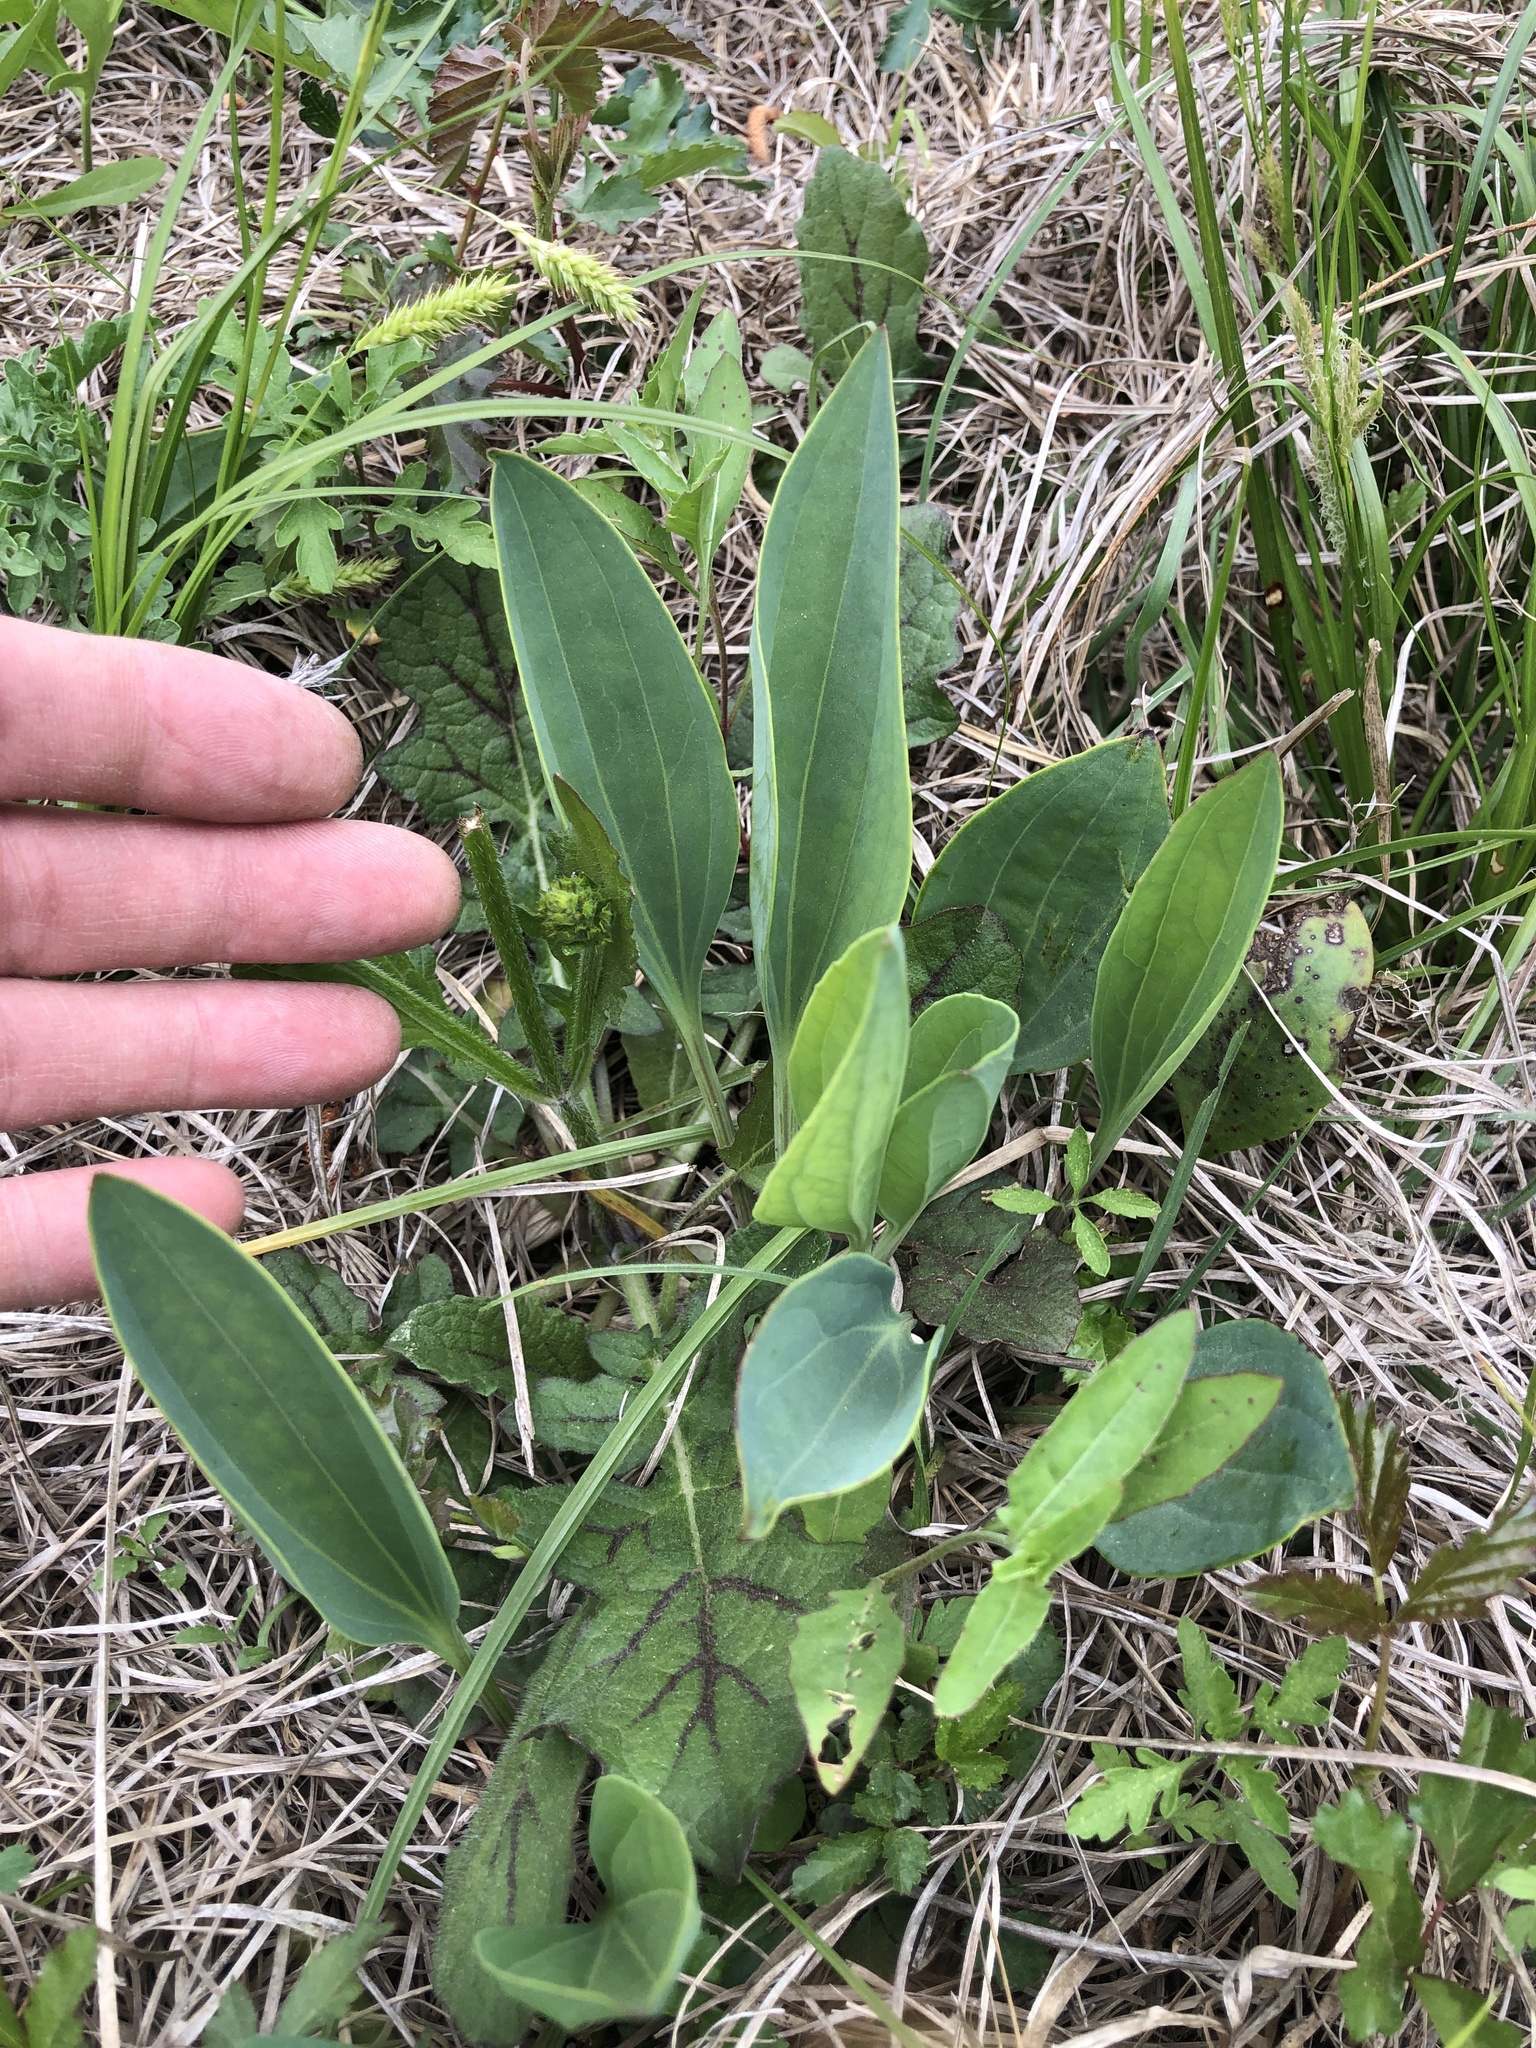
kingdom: Plantae
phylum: Tracheophyta
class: Magnoliopsida
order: Asterales
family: Asteraceae
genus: Arnoglossum
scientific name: Arnoglossum ovatum
